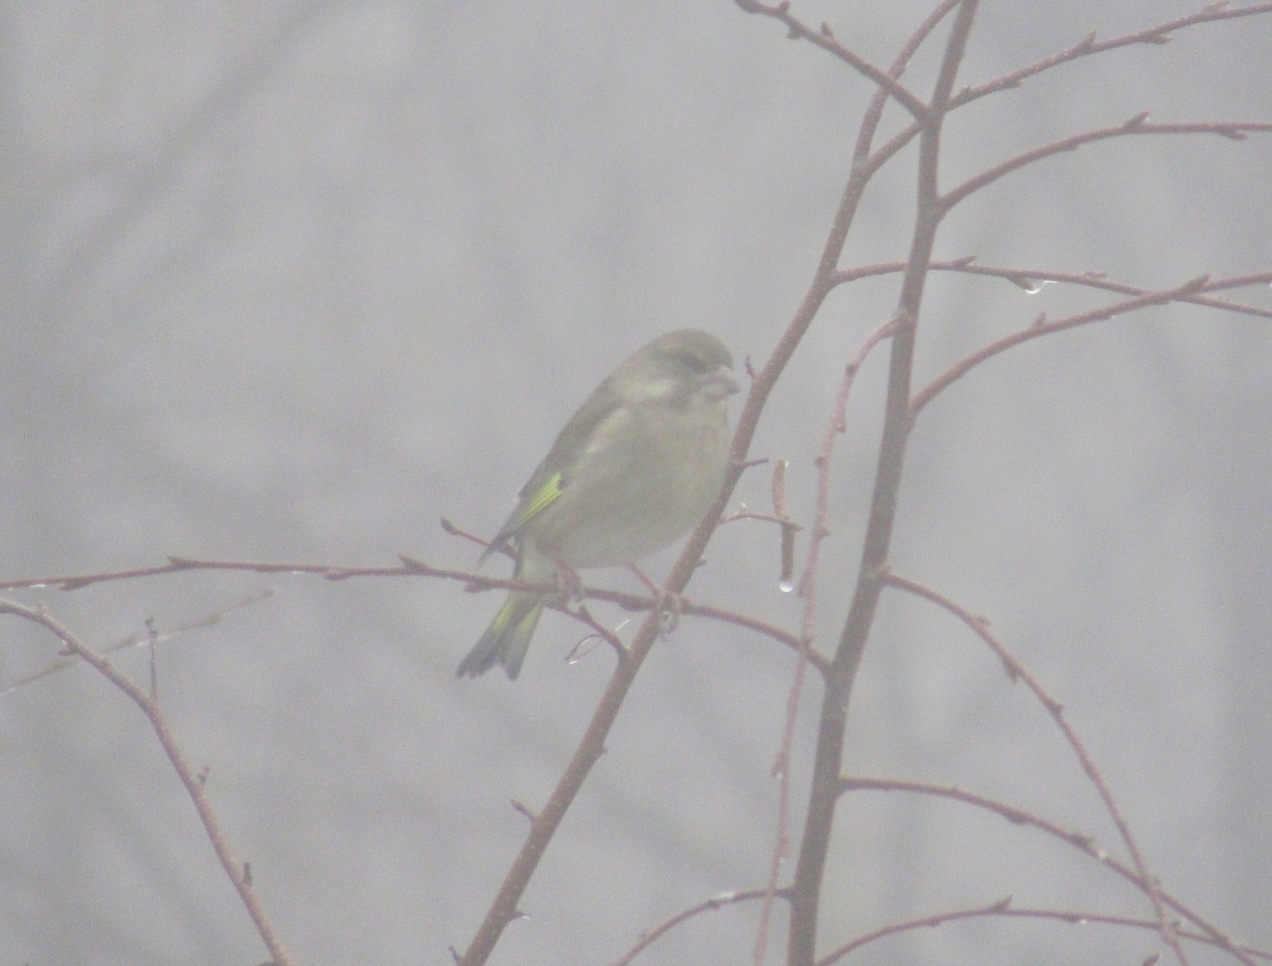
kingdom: Plantae
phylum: Tracheophyta
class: Liliopsida
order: Poales
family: Poaceae
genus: Chloris
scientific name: Chloris chloris
